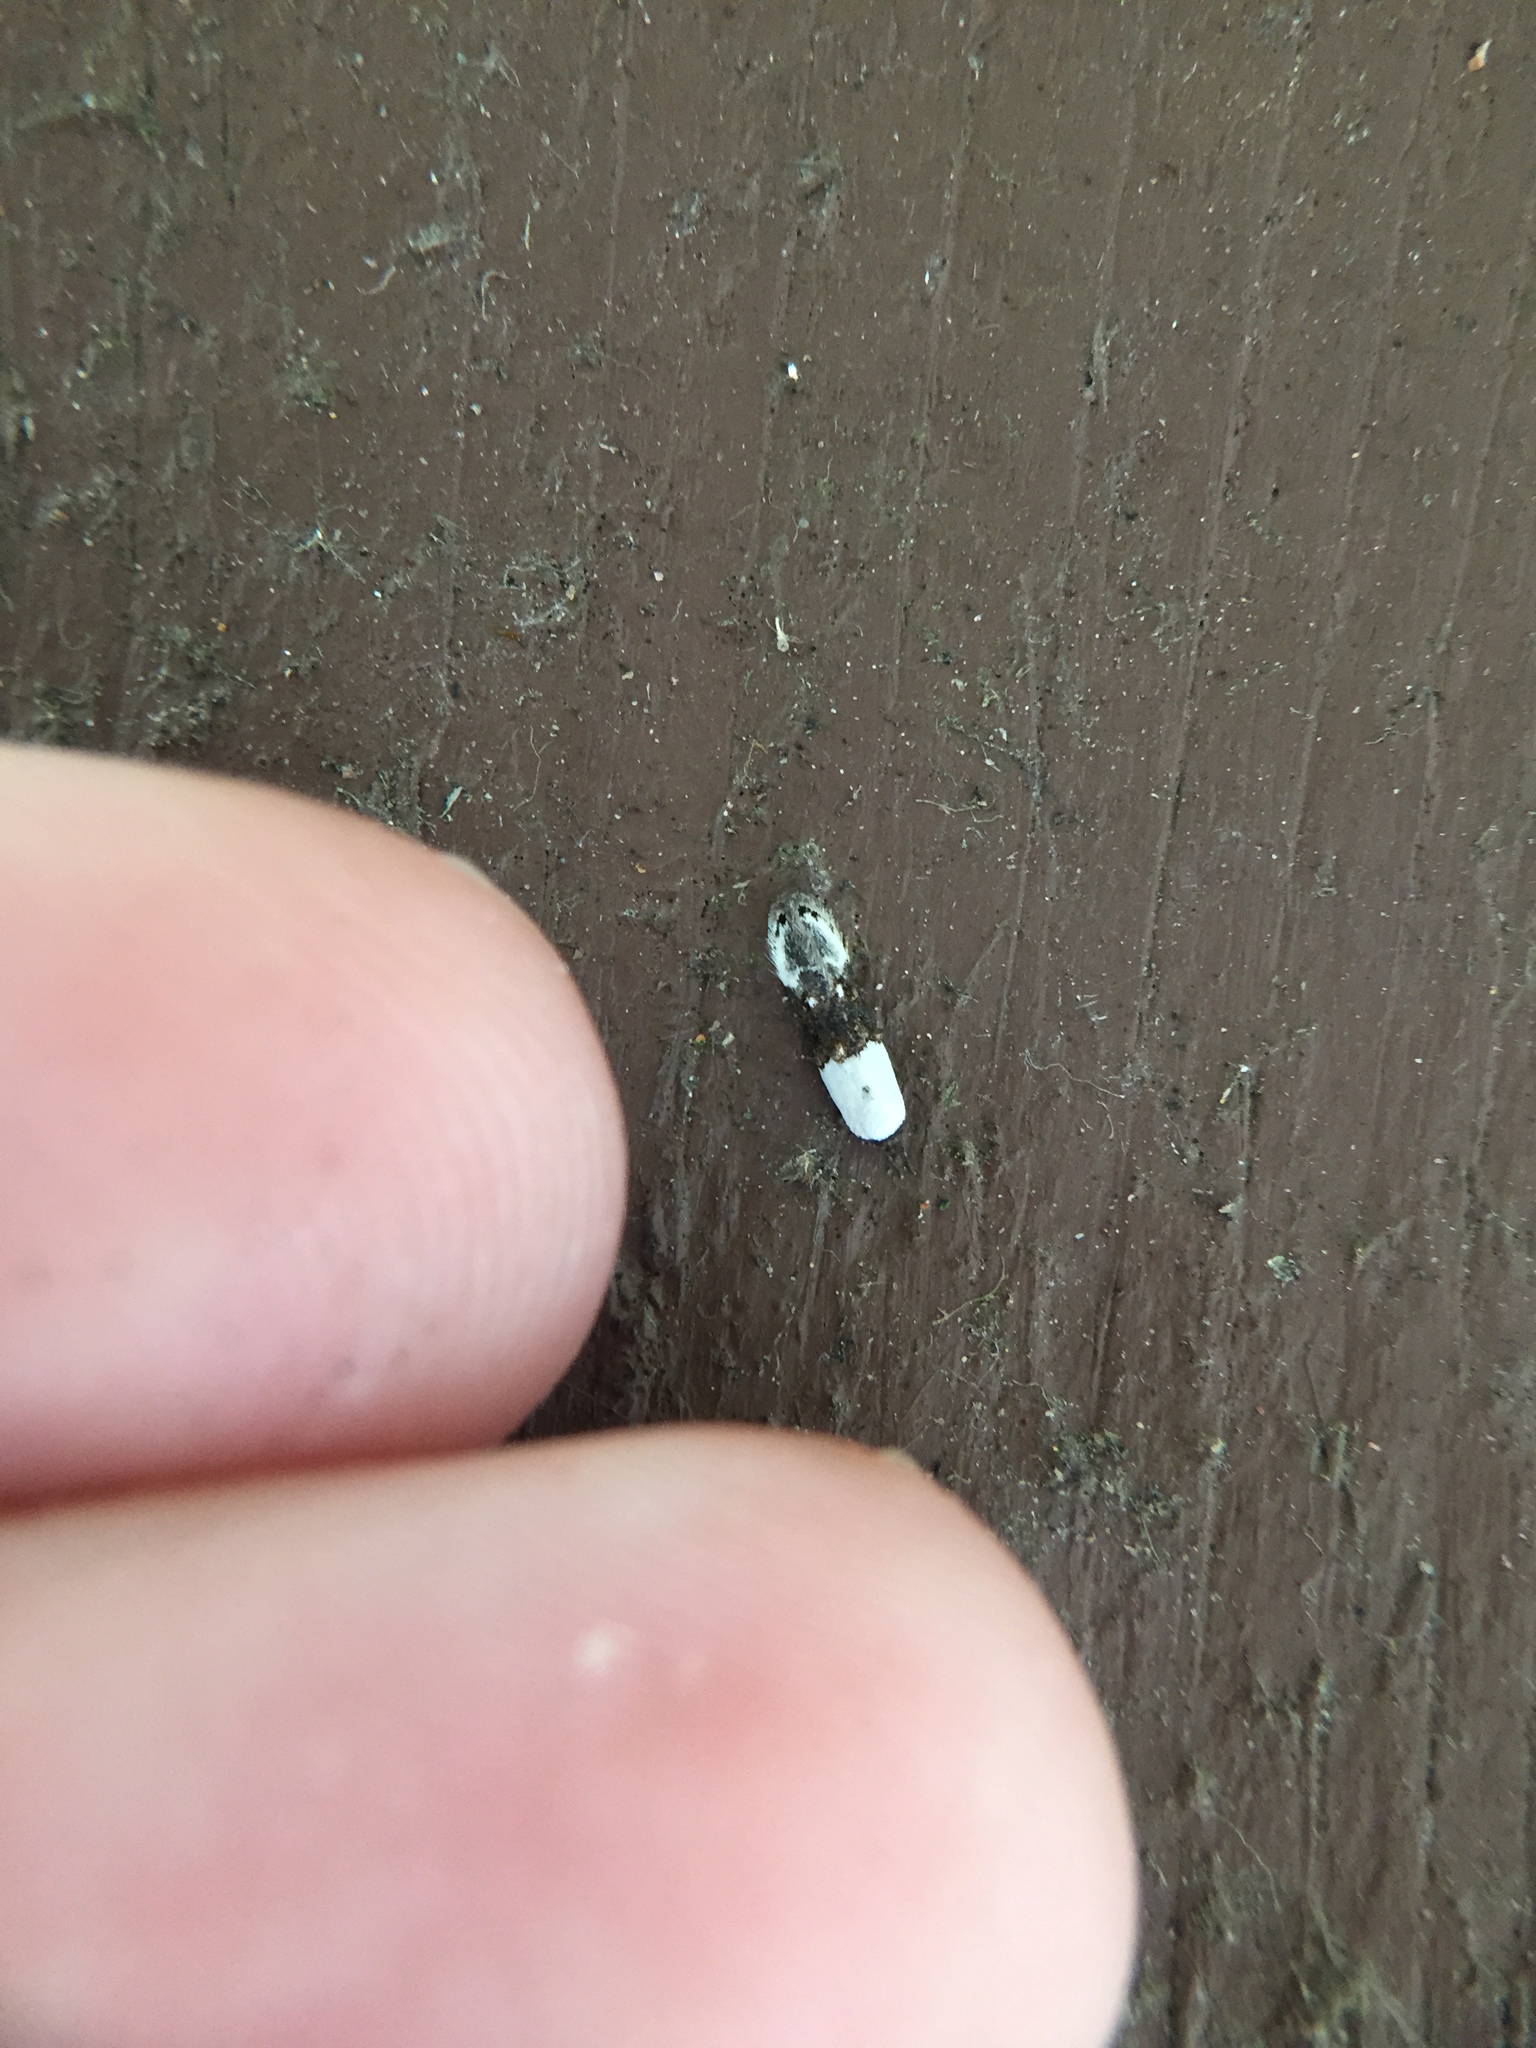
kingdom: Animalia
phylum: Arthropoda
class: Insecta
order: Lepidoptera
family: Oecophoridae
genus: Trachypepla
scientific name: Trachypepla amphileuca
